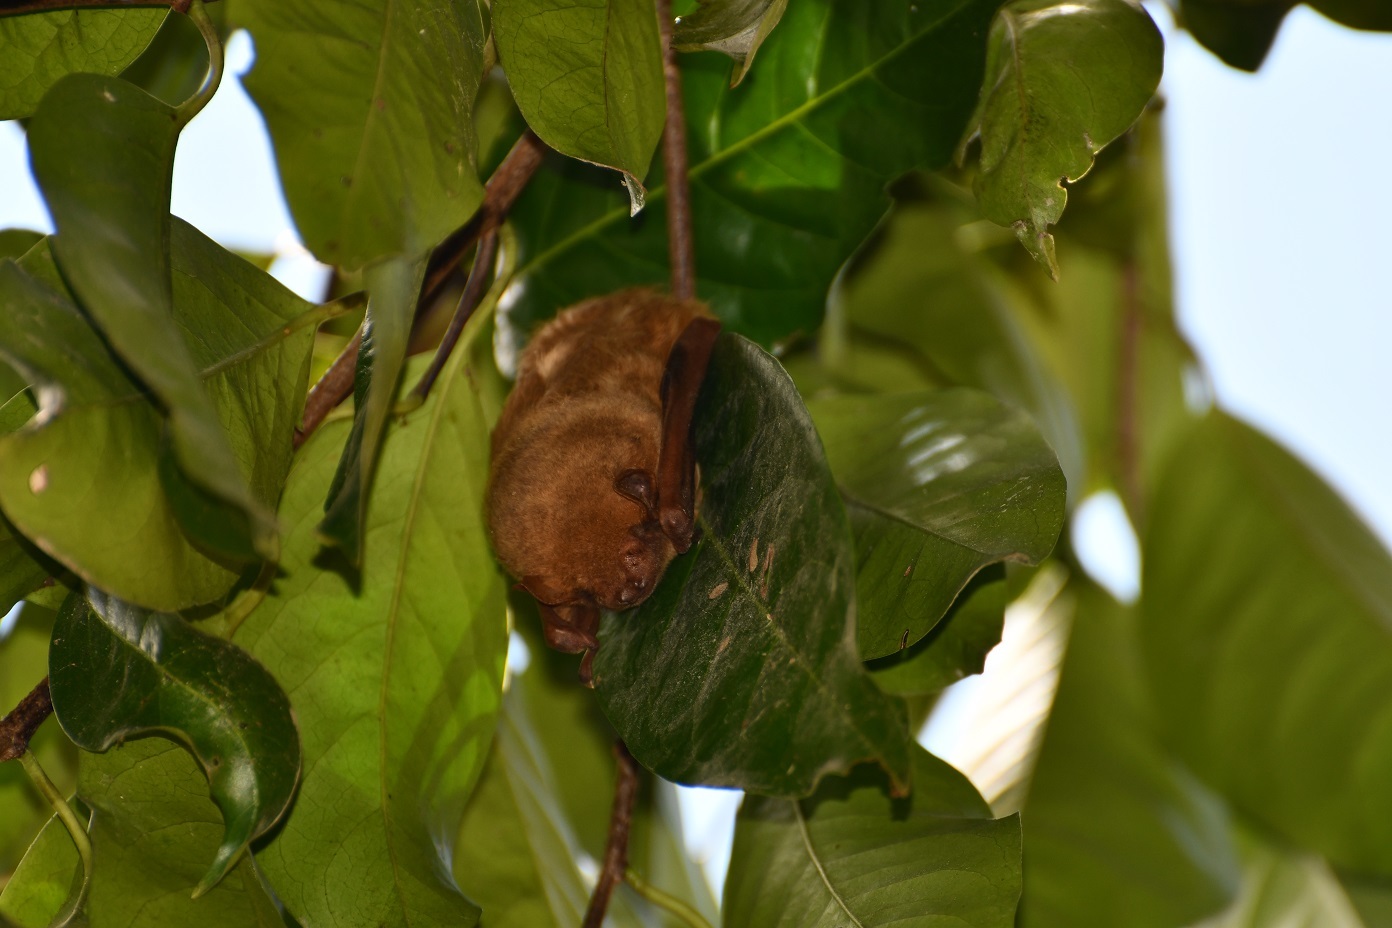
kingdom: Animalia
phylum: Chordata
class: Mammalia
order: Chiroptera
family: Vespertilionidae
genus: Lasiurus
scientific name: Lasiurus frantzii
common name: Desert red bat
